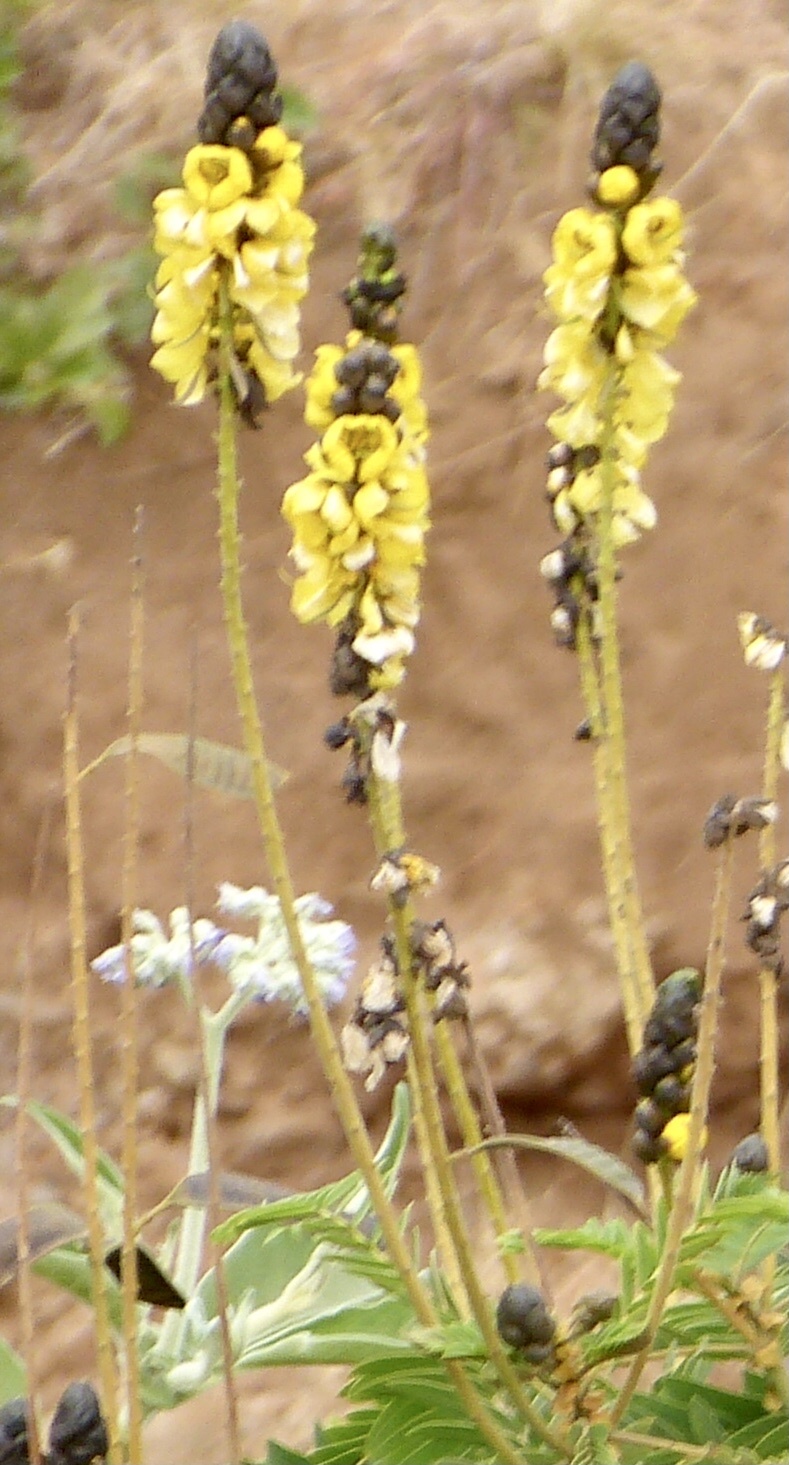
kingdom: Plantae
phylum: Tracheophyta
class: Magnoliopsida
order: Fabales
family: Fabaceae
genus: Senna
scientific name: Senna didymobotrya
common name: African senna
